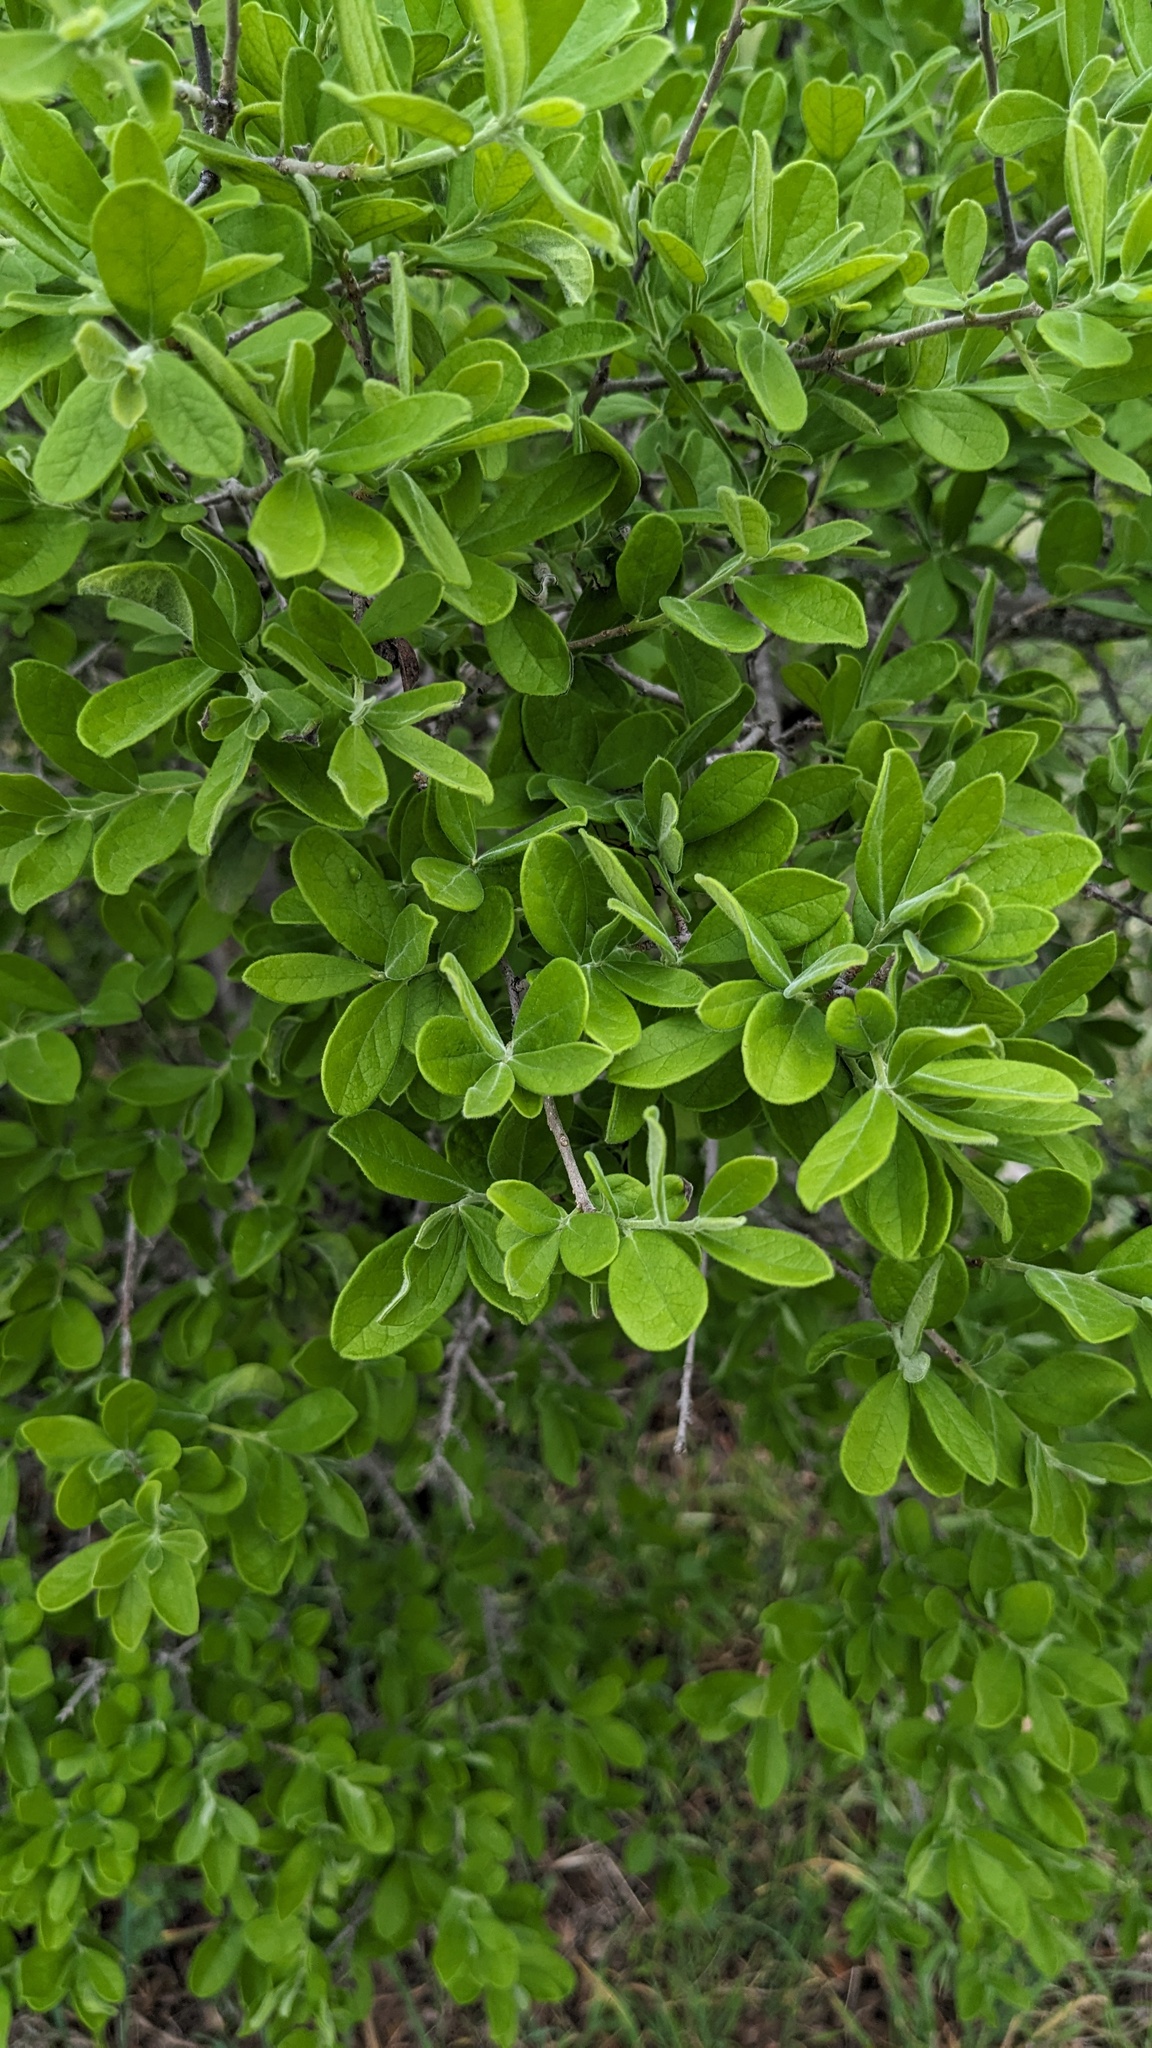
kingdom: Plantae
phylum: Tracheophyta
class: Magnoliopsida
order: Ericales
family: Ebenaceae
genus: Diospyros
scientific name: Diospyros texana
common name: Texas persimmon
